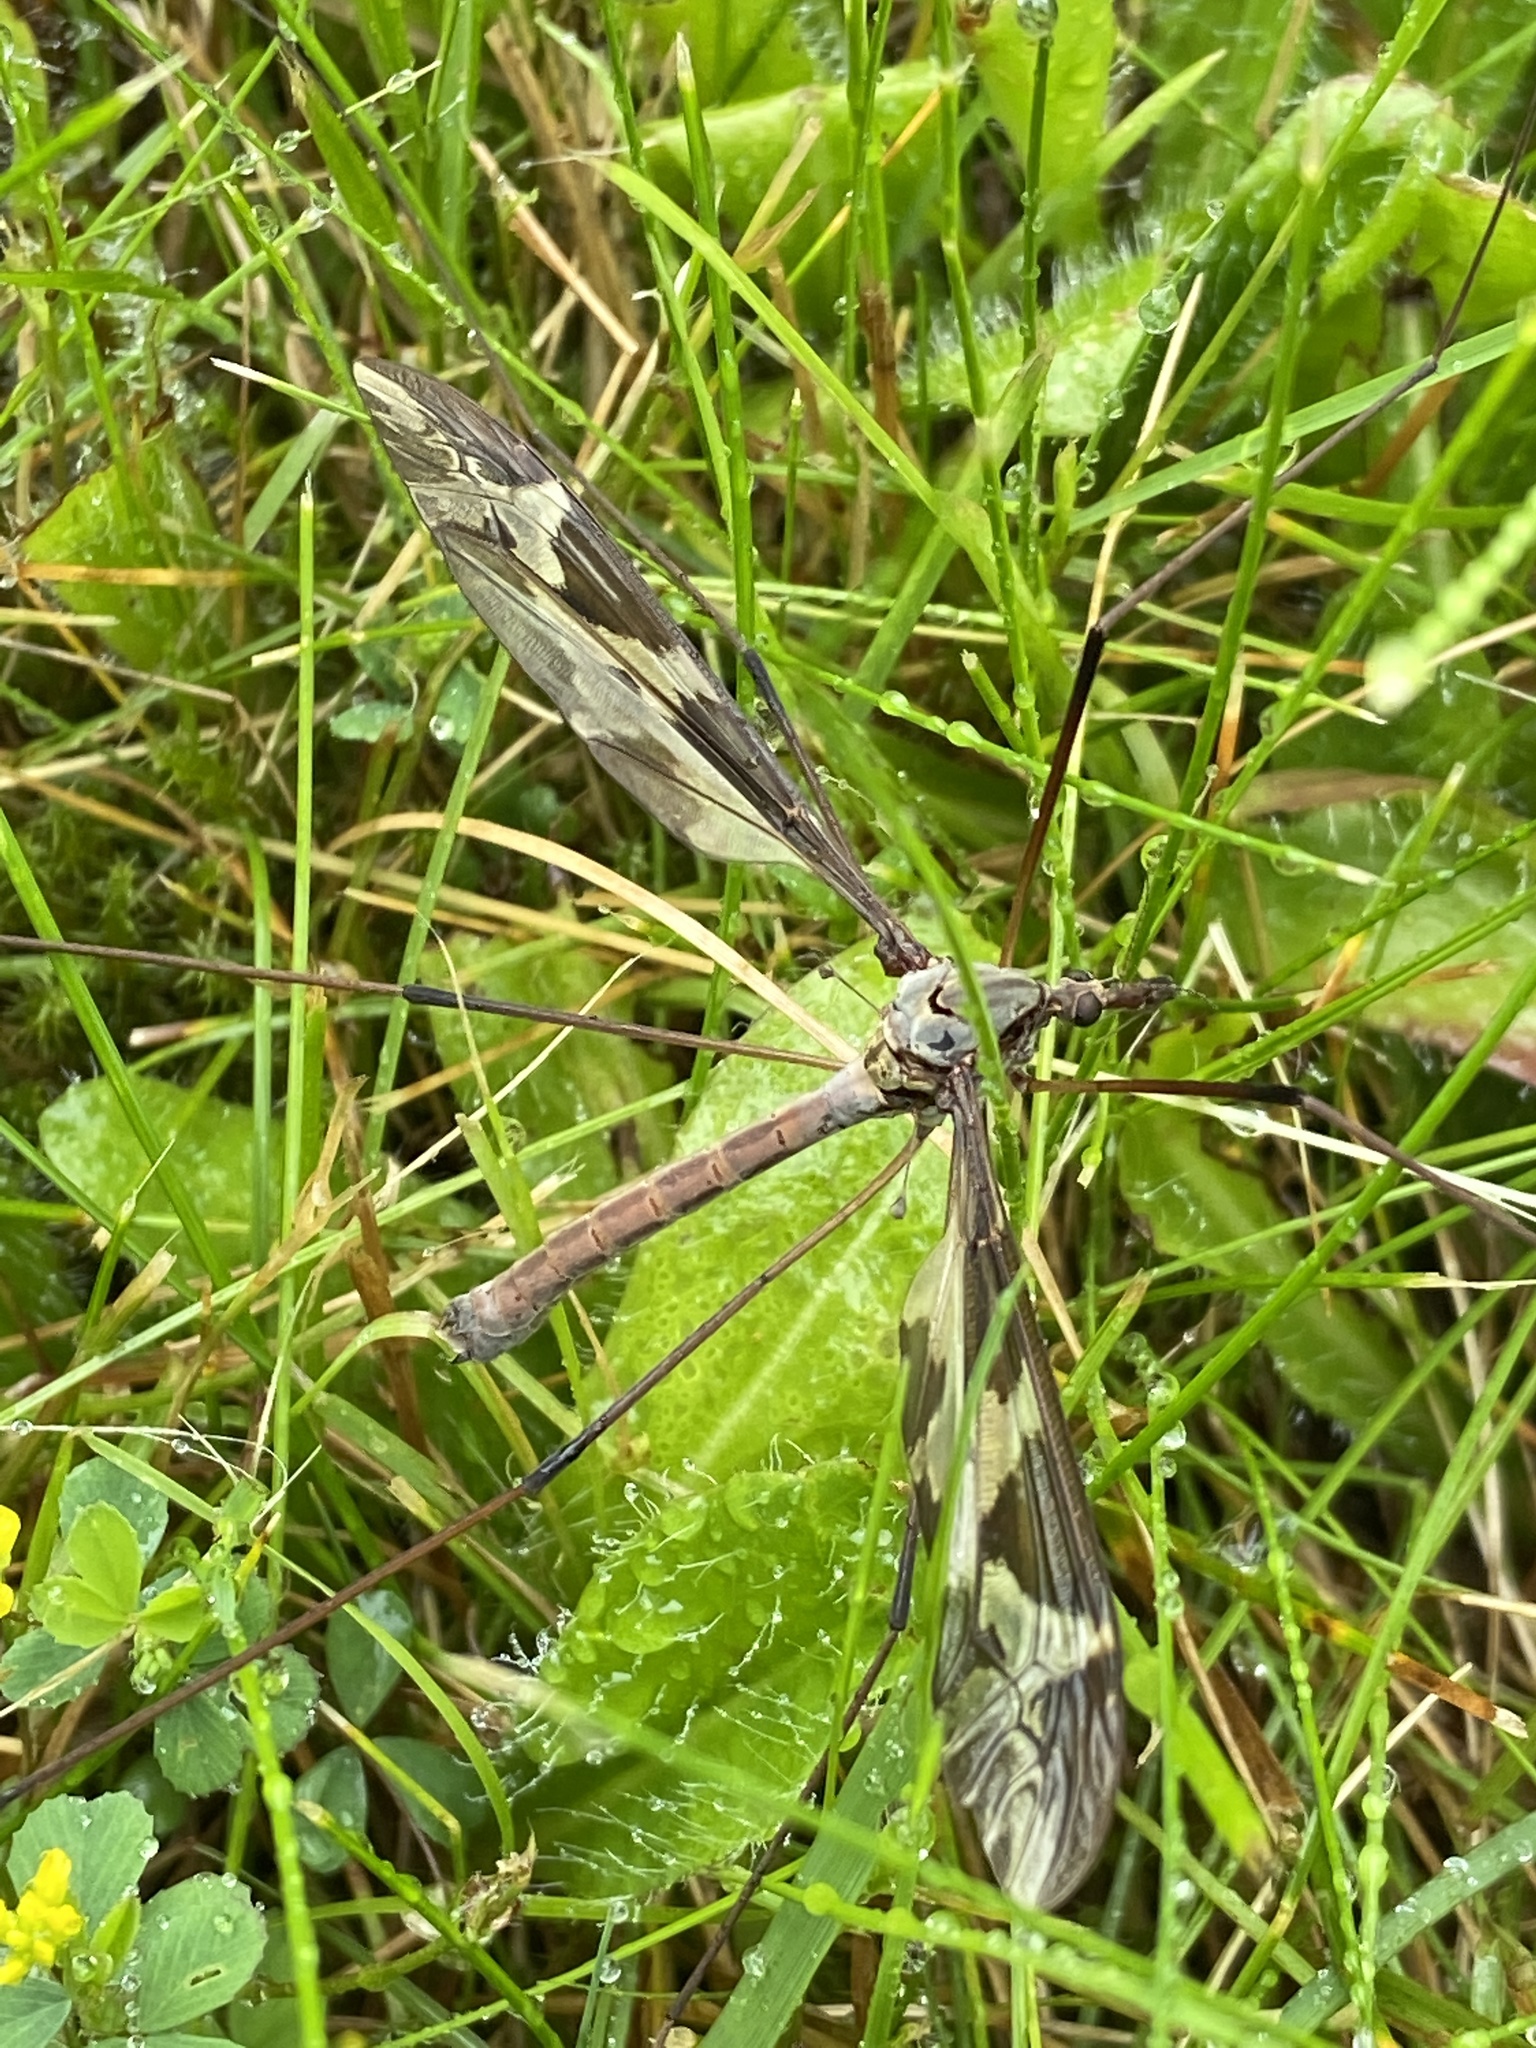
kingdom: Animalia
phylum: Arthropoda
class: Insecta
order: Diptera
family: Tipulidae
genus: Tipula
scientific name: Tipula maxima
